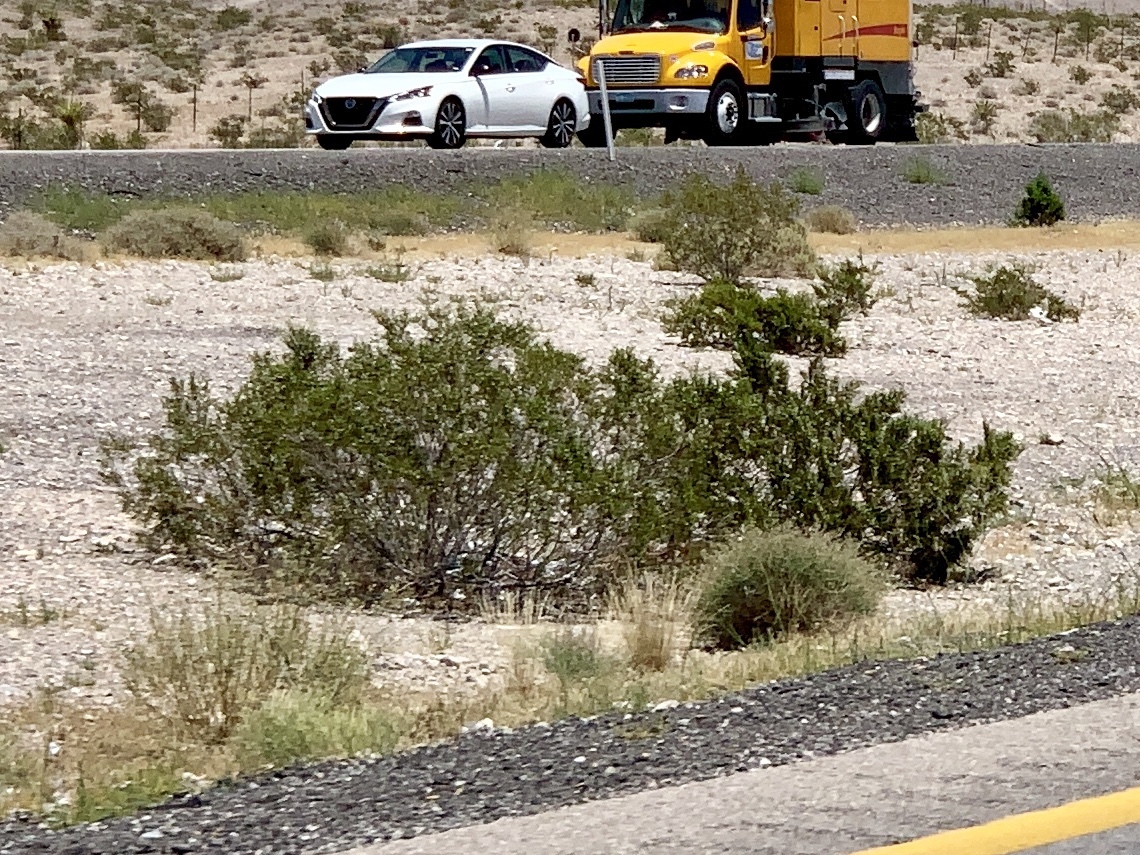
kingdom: Plantae
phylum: Tracheophyta
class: Magnoliopsida
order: Zygophyllales
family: Zygophyllaceae
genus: Larrea
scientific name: Larrea tridentata
